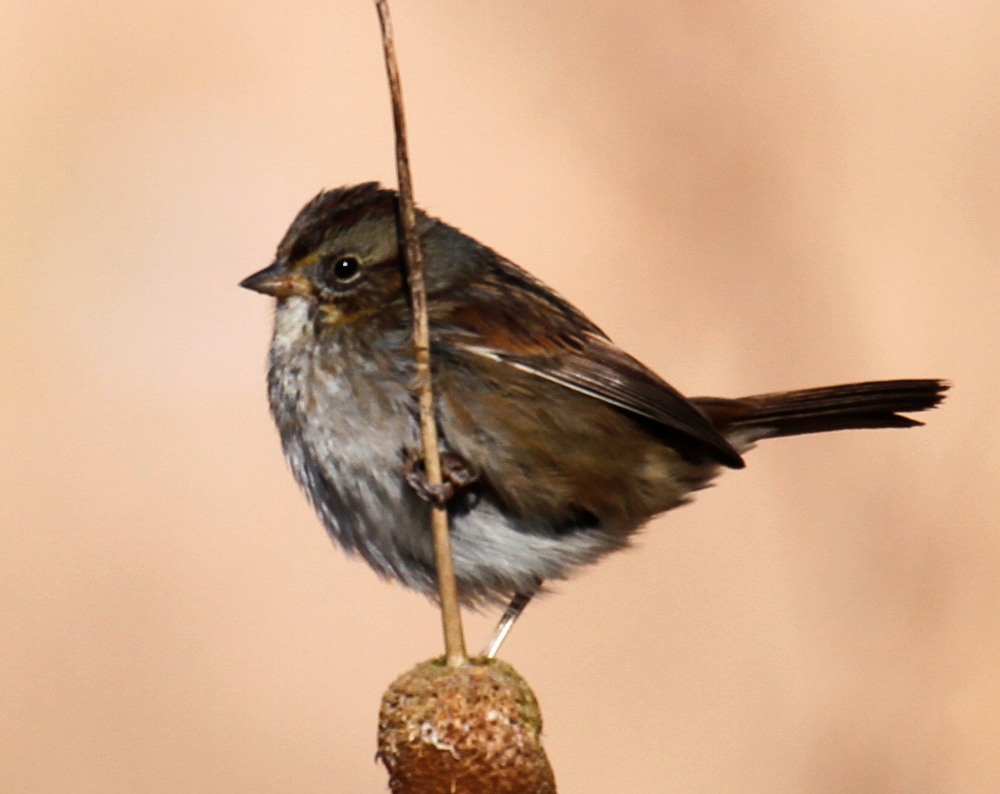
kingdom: Animalia
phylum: Chordata
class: Aves
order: Passeriformes
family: Passerellidae
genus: Melospiza
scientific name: Melospiza georgiana
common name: Swamp sparrow
